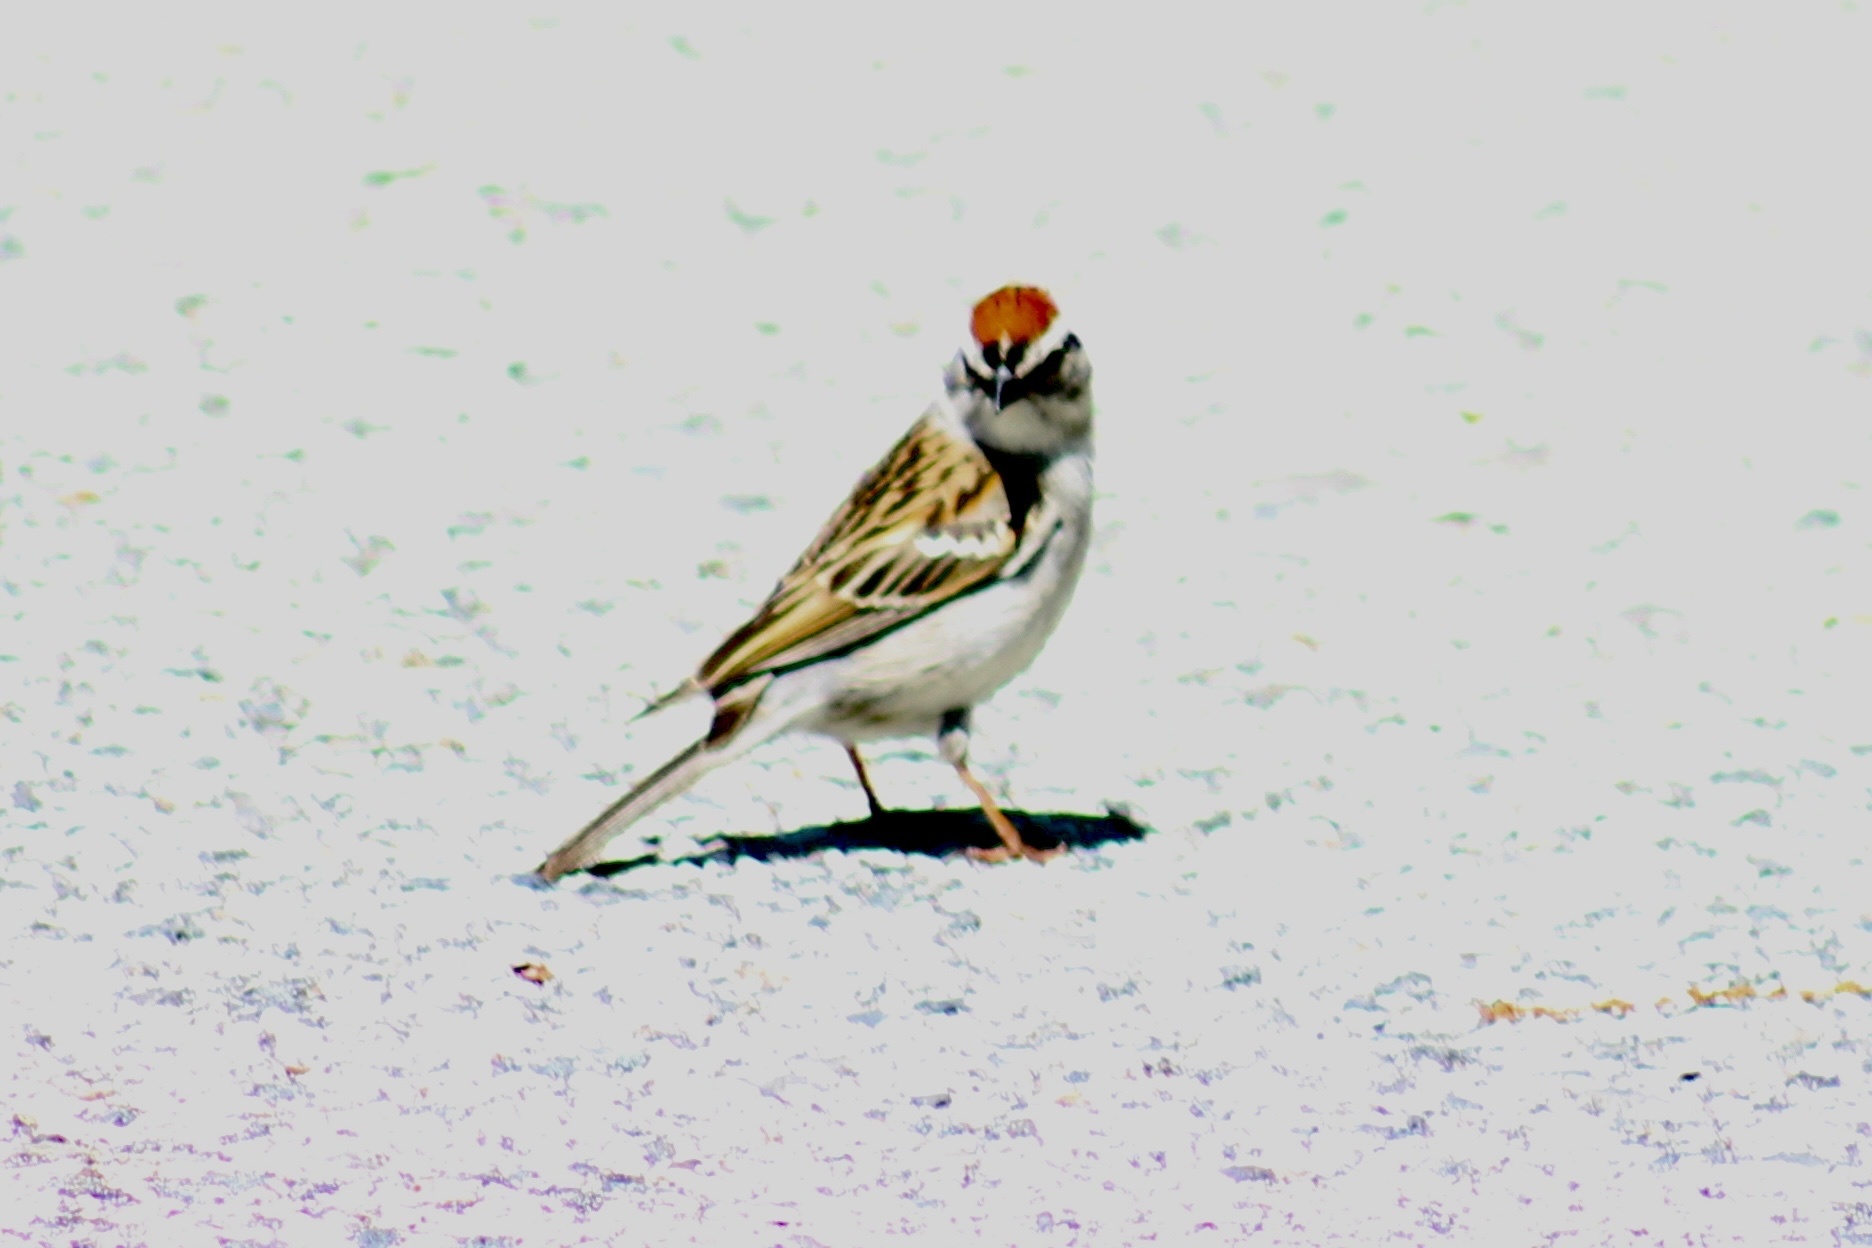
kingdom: Animalia
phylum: Chordata
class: Aves
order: Passeriformes
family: Passerellidae
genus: Spizella
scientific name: Spizella passerina
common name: Chipping sparrow
